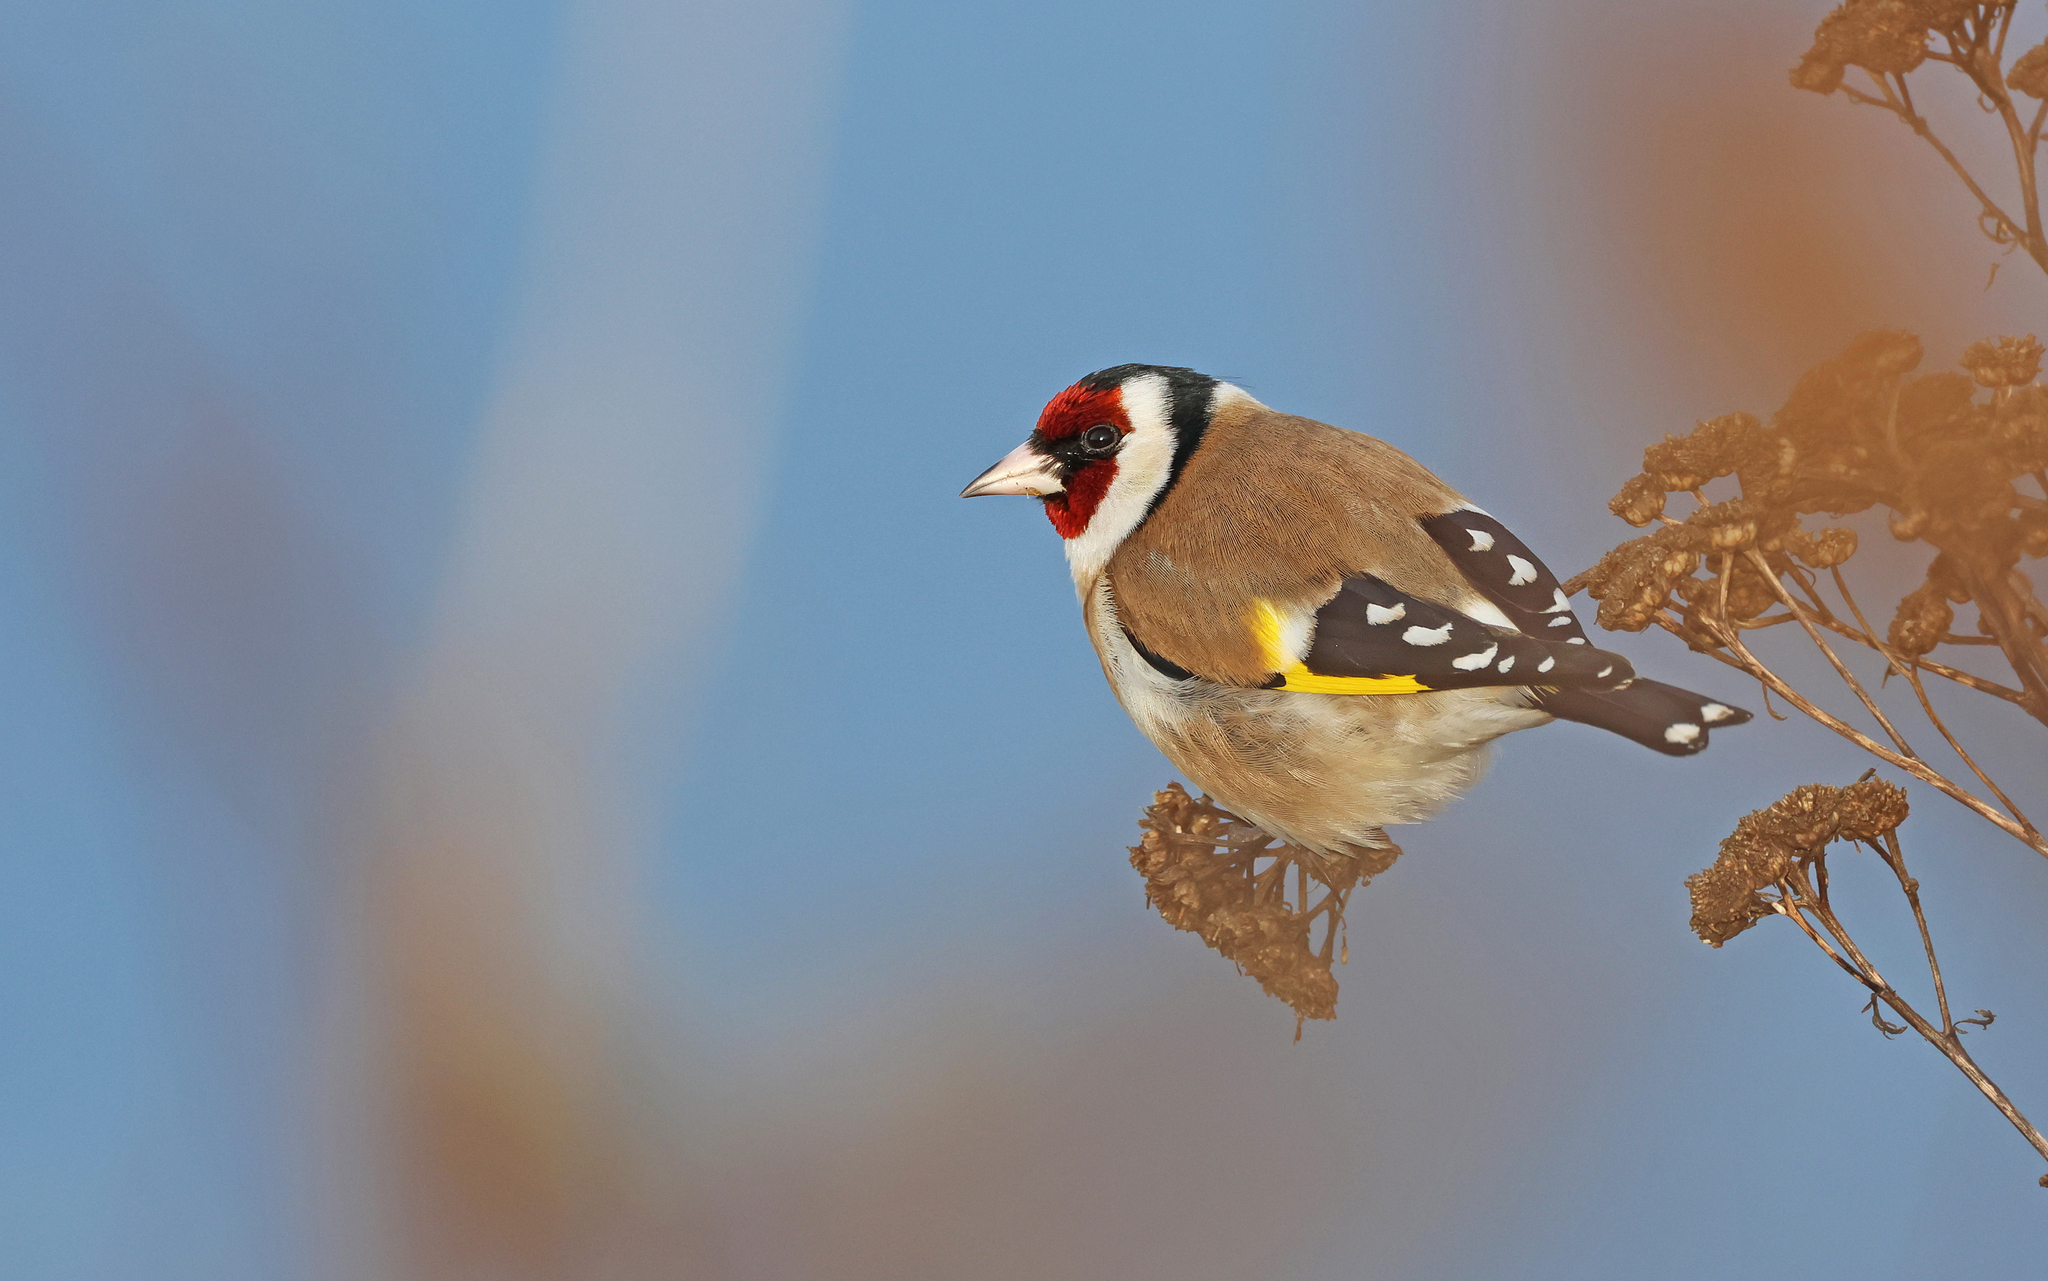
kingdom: Animalia
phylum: Chordata
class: Aves
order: Passeriformes
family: Fringillidae
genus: Carduelis
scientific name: Carduelis carduelis
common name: European goldfinch
